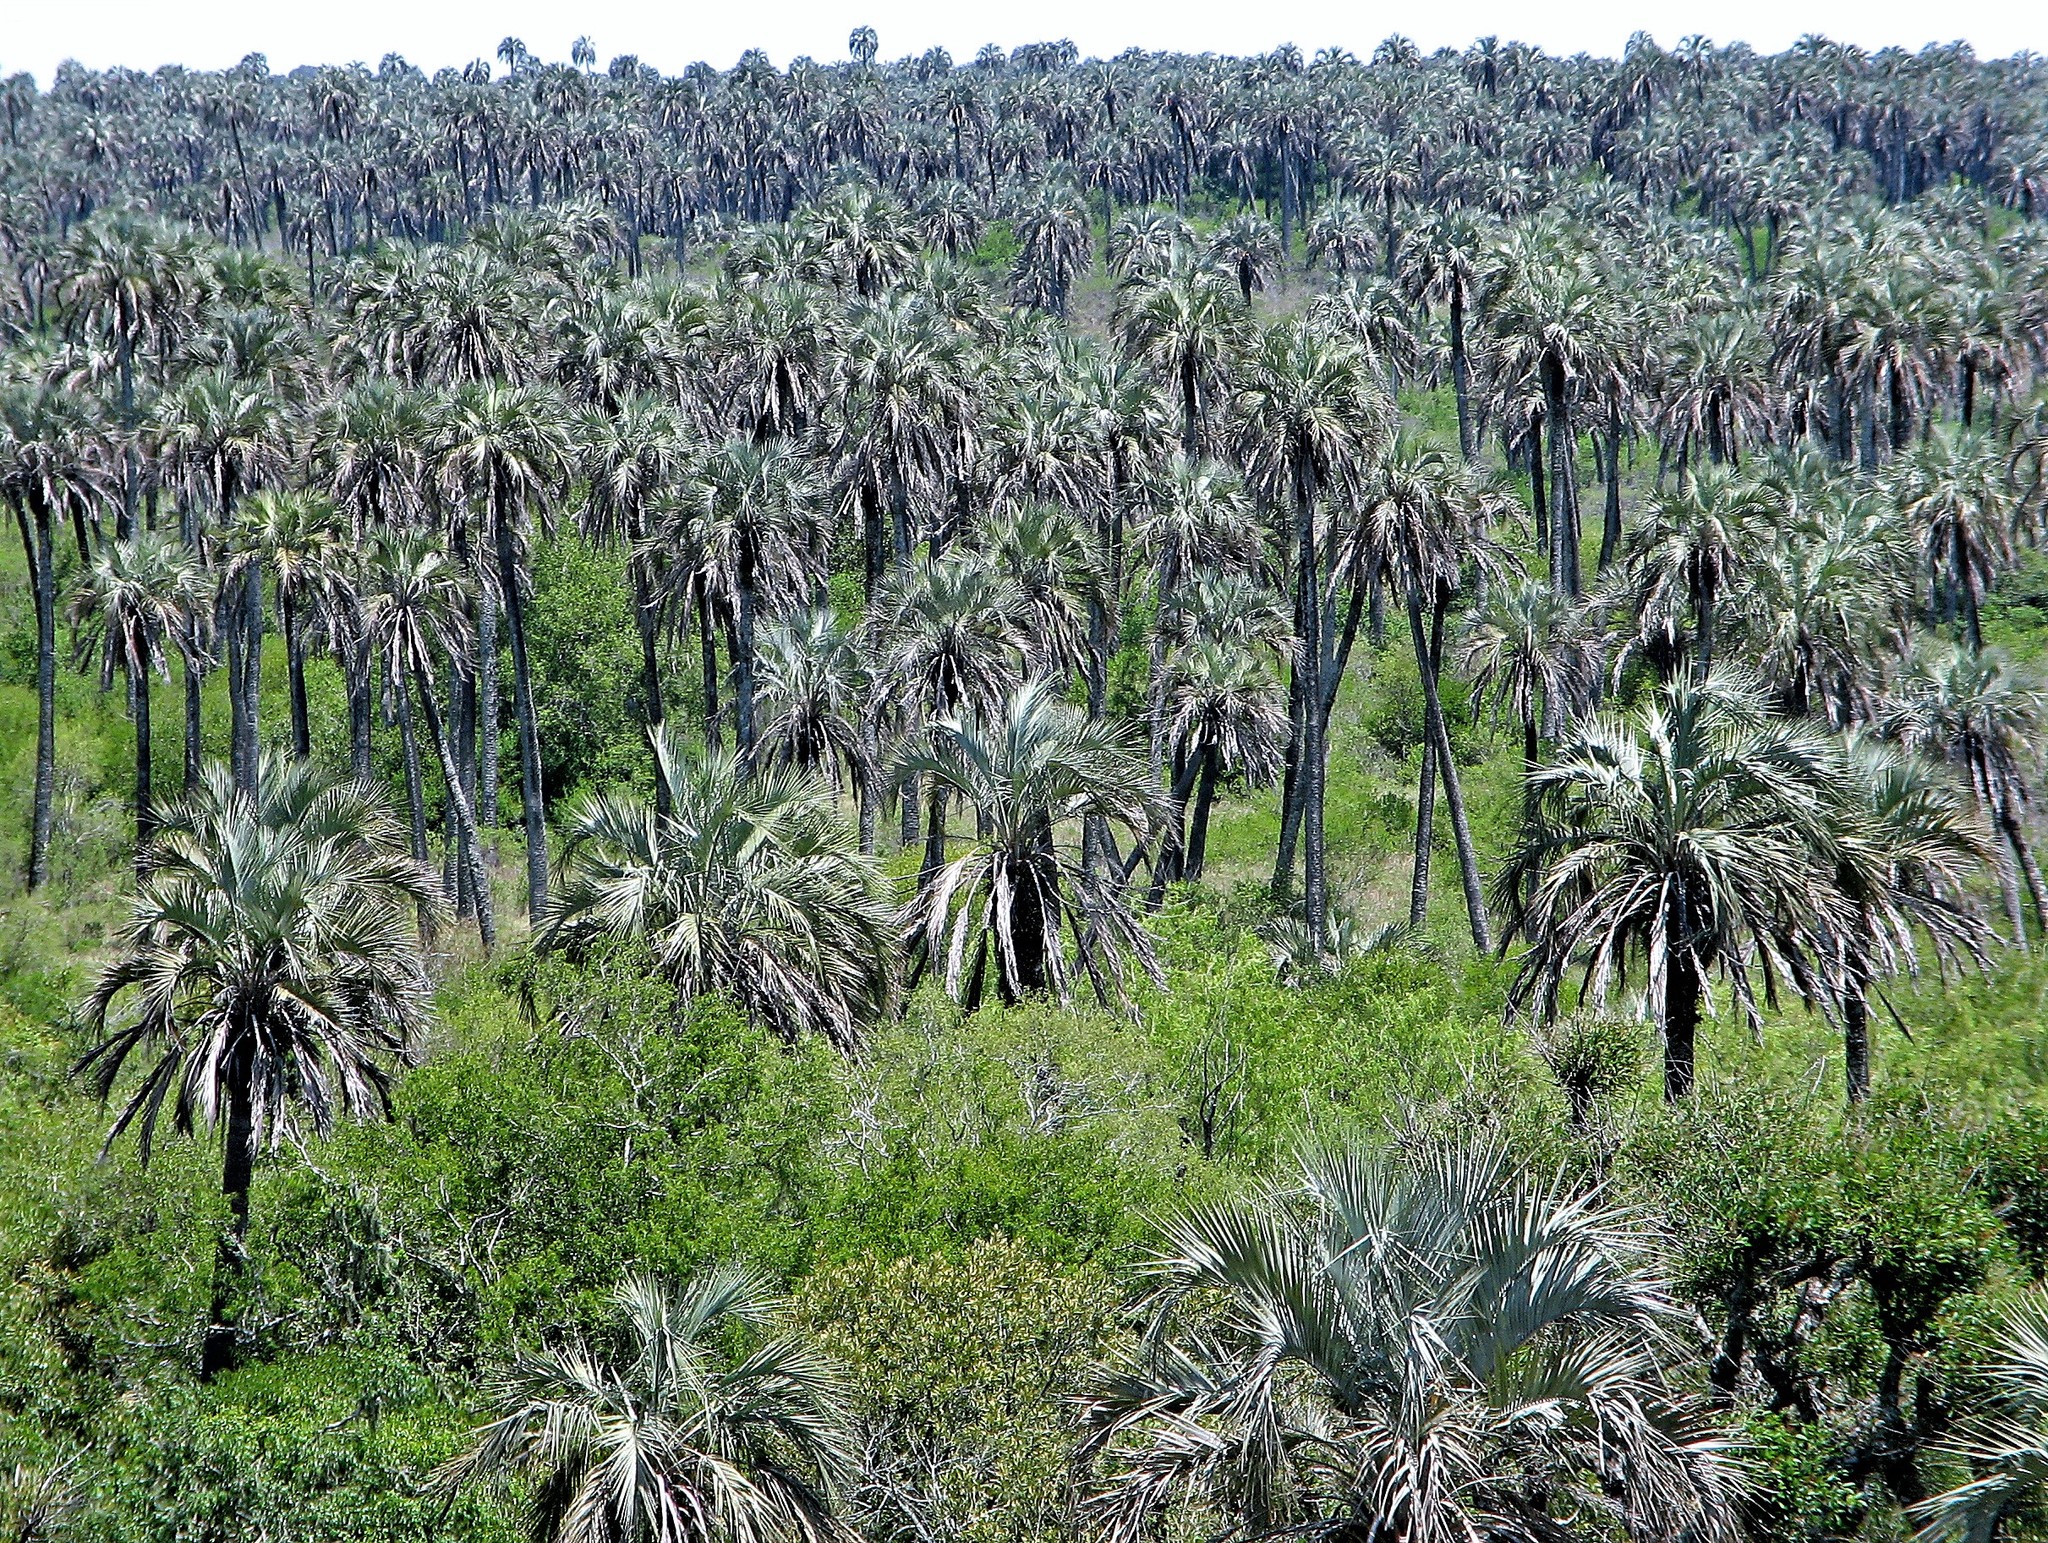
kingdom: Plantae
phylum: Tracheophyta
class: Liliopsida
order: Arecales
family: Arecaceae
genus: Butia
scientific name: Butia yatay
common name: Yatay palm
